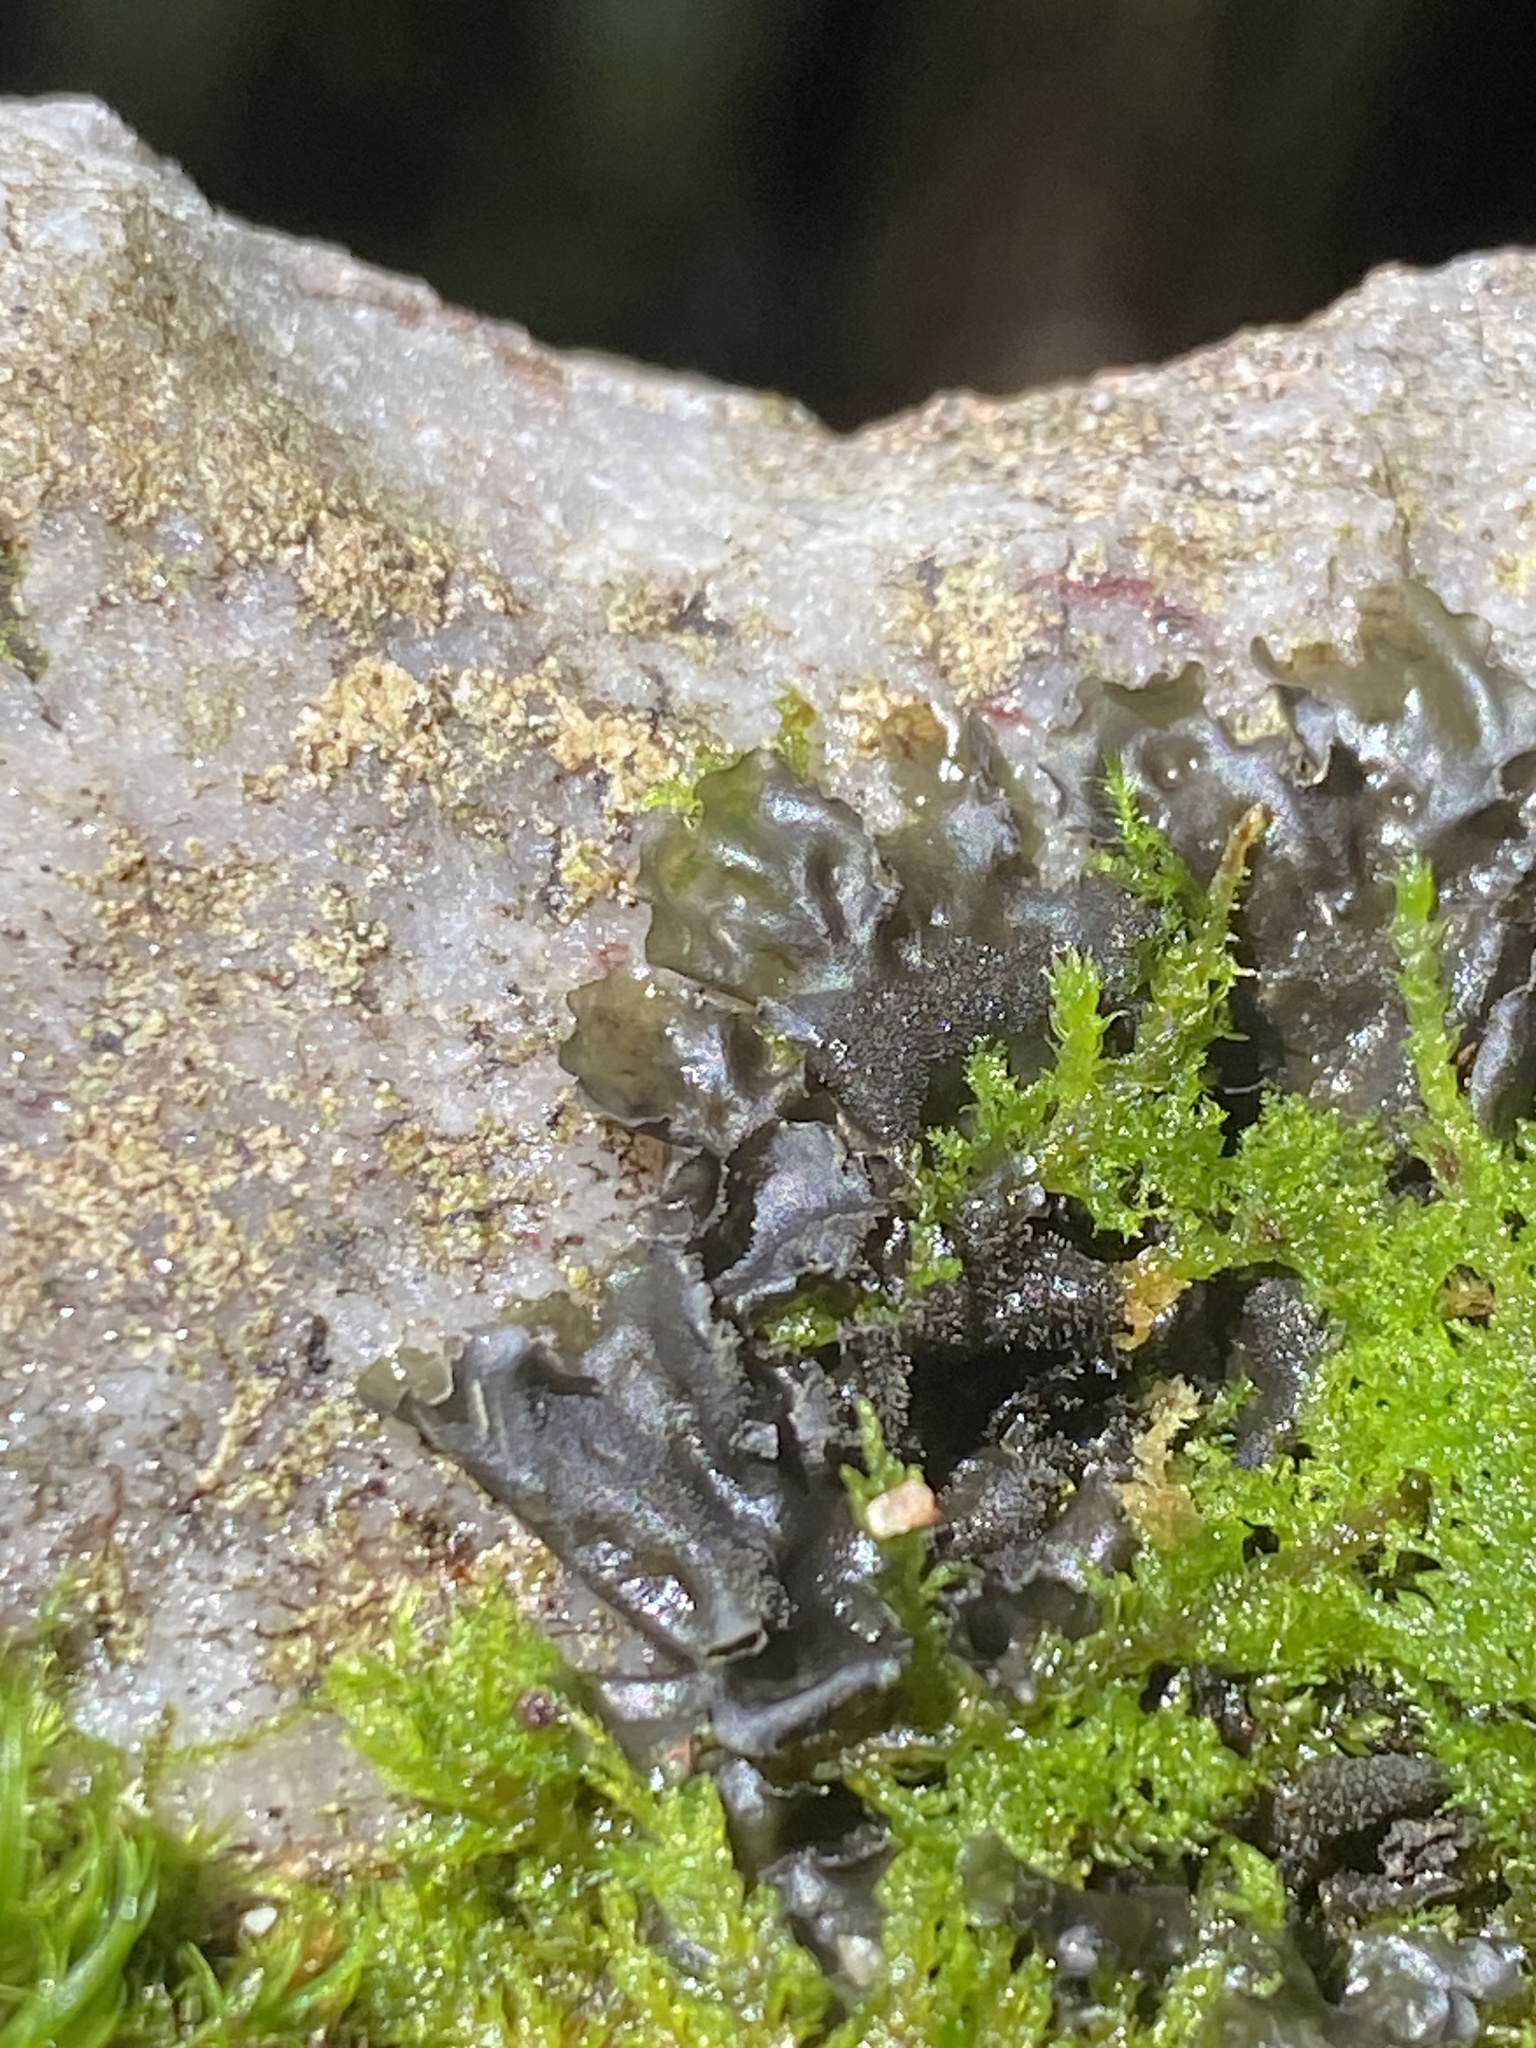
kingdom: Fungi
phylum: Ascomycota
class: Lecanoromycetes
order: Peltigerales
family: Collemataceae
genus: Leptogium
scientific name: Leptogium cyanescens
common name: Blue jellyskin
